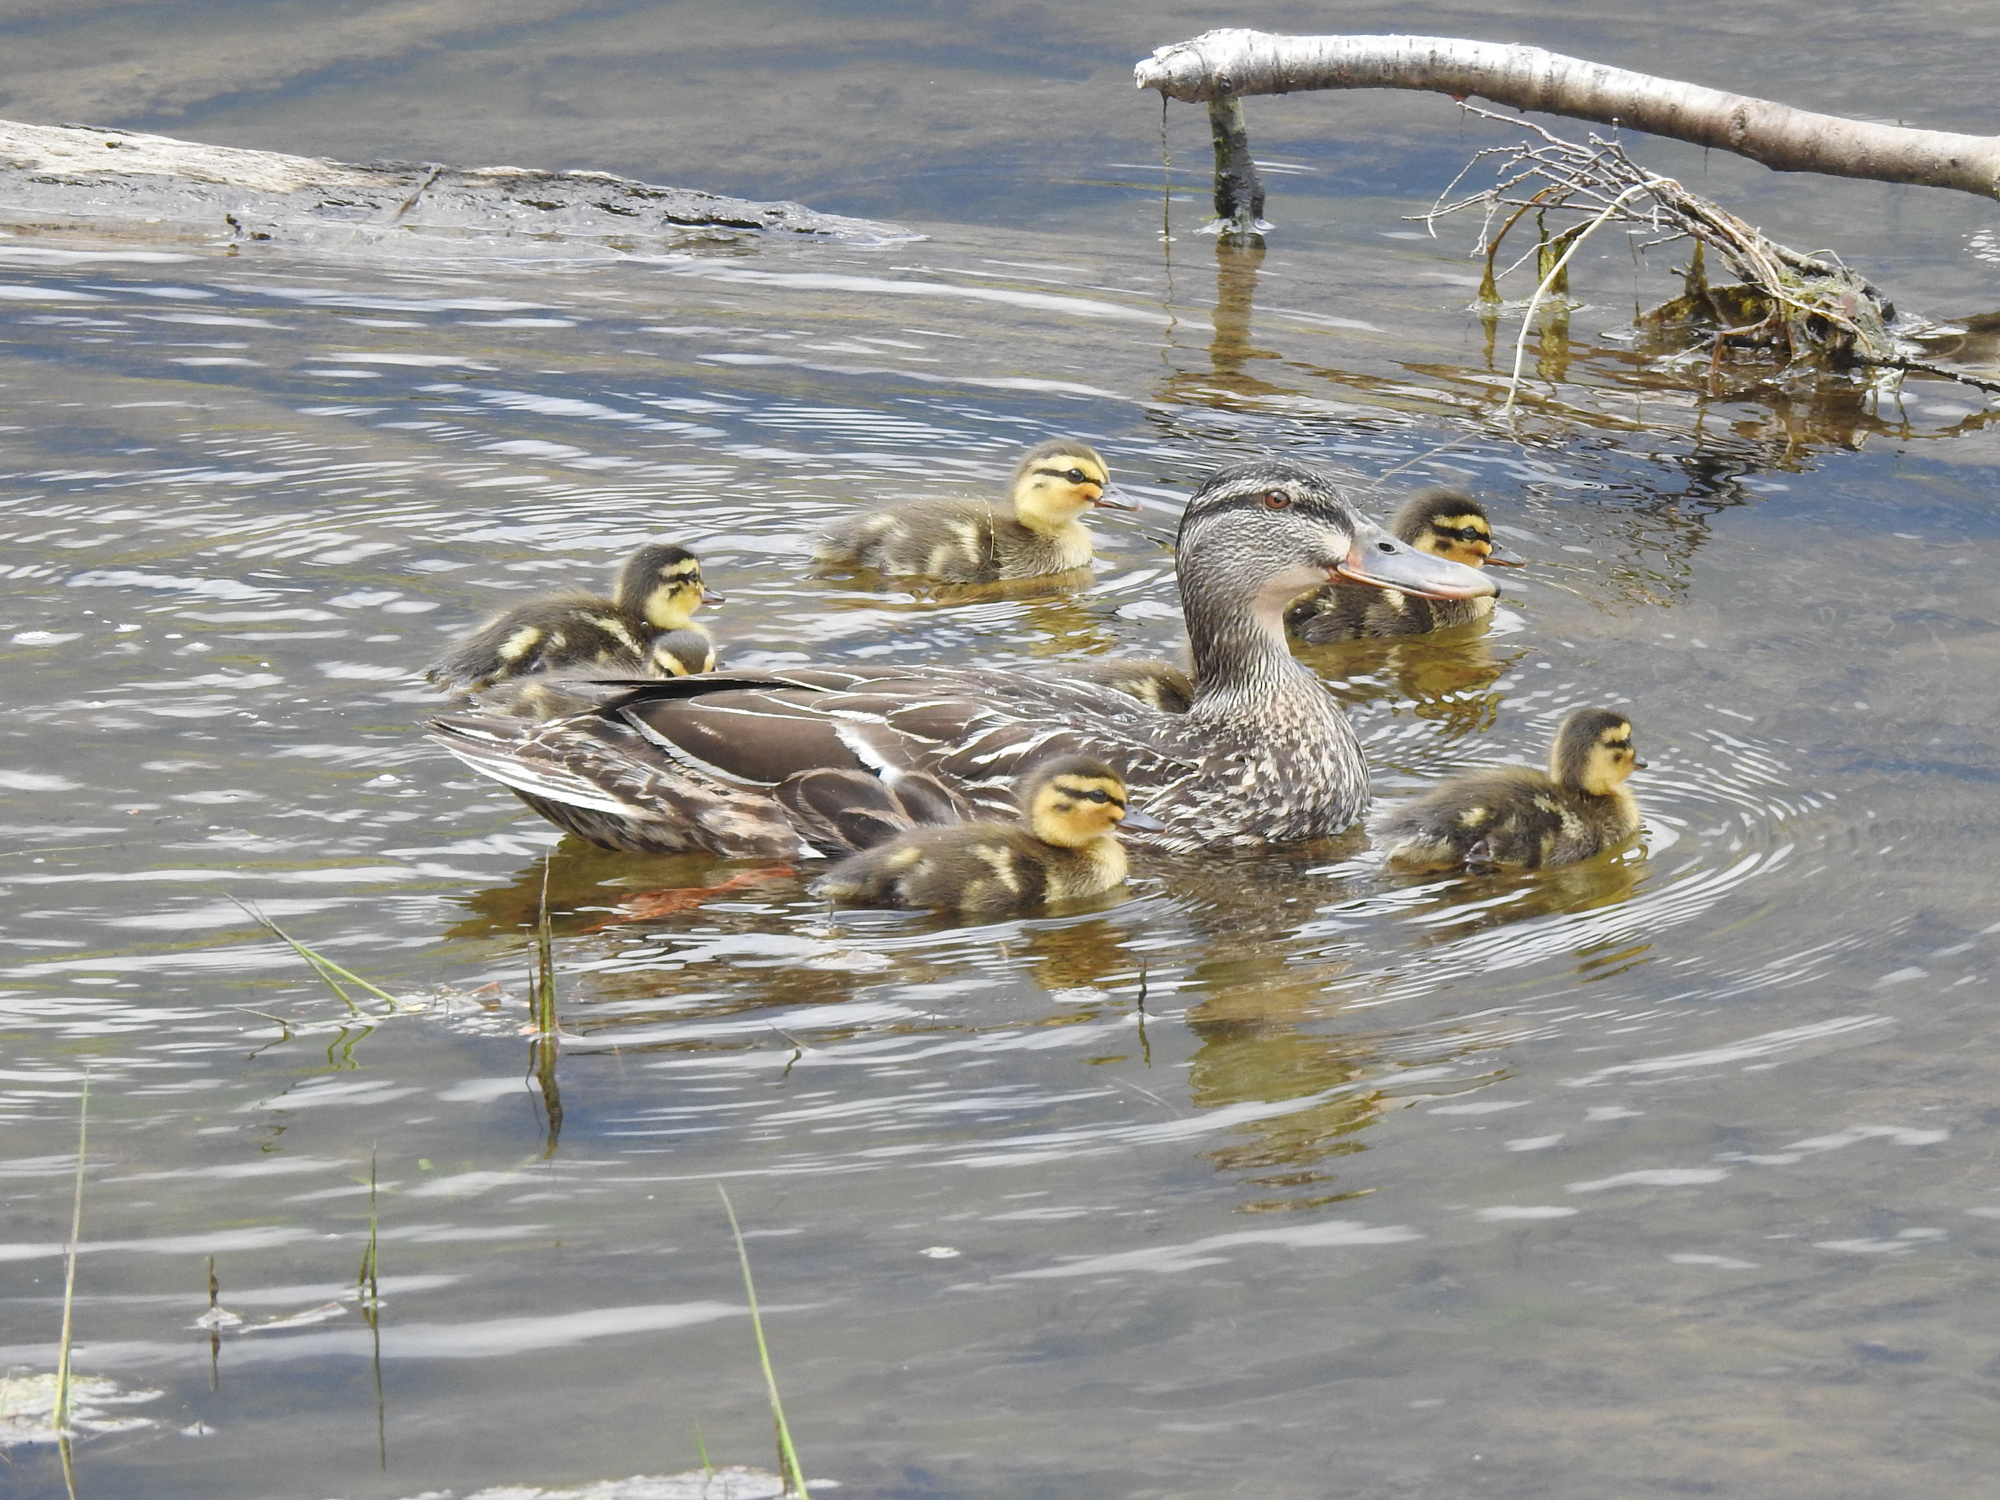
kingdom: Animalia
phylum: Chordata
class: Aves
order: Anseriformes
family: Anatidae
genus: Anas
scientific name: Anas
